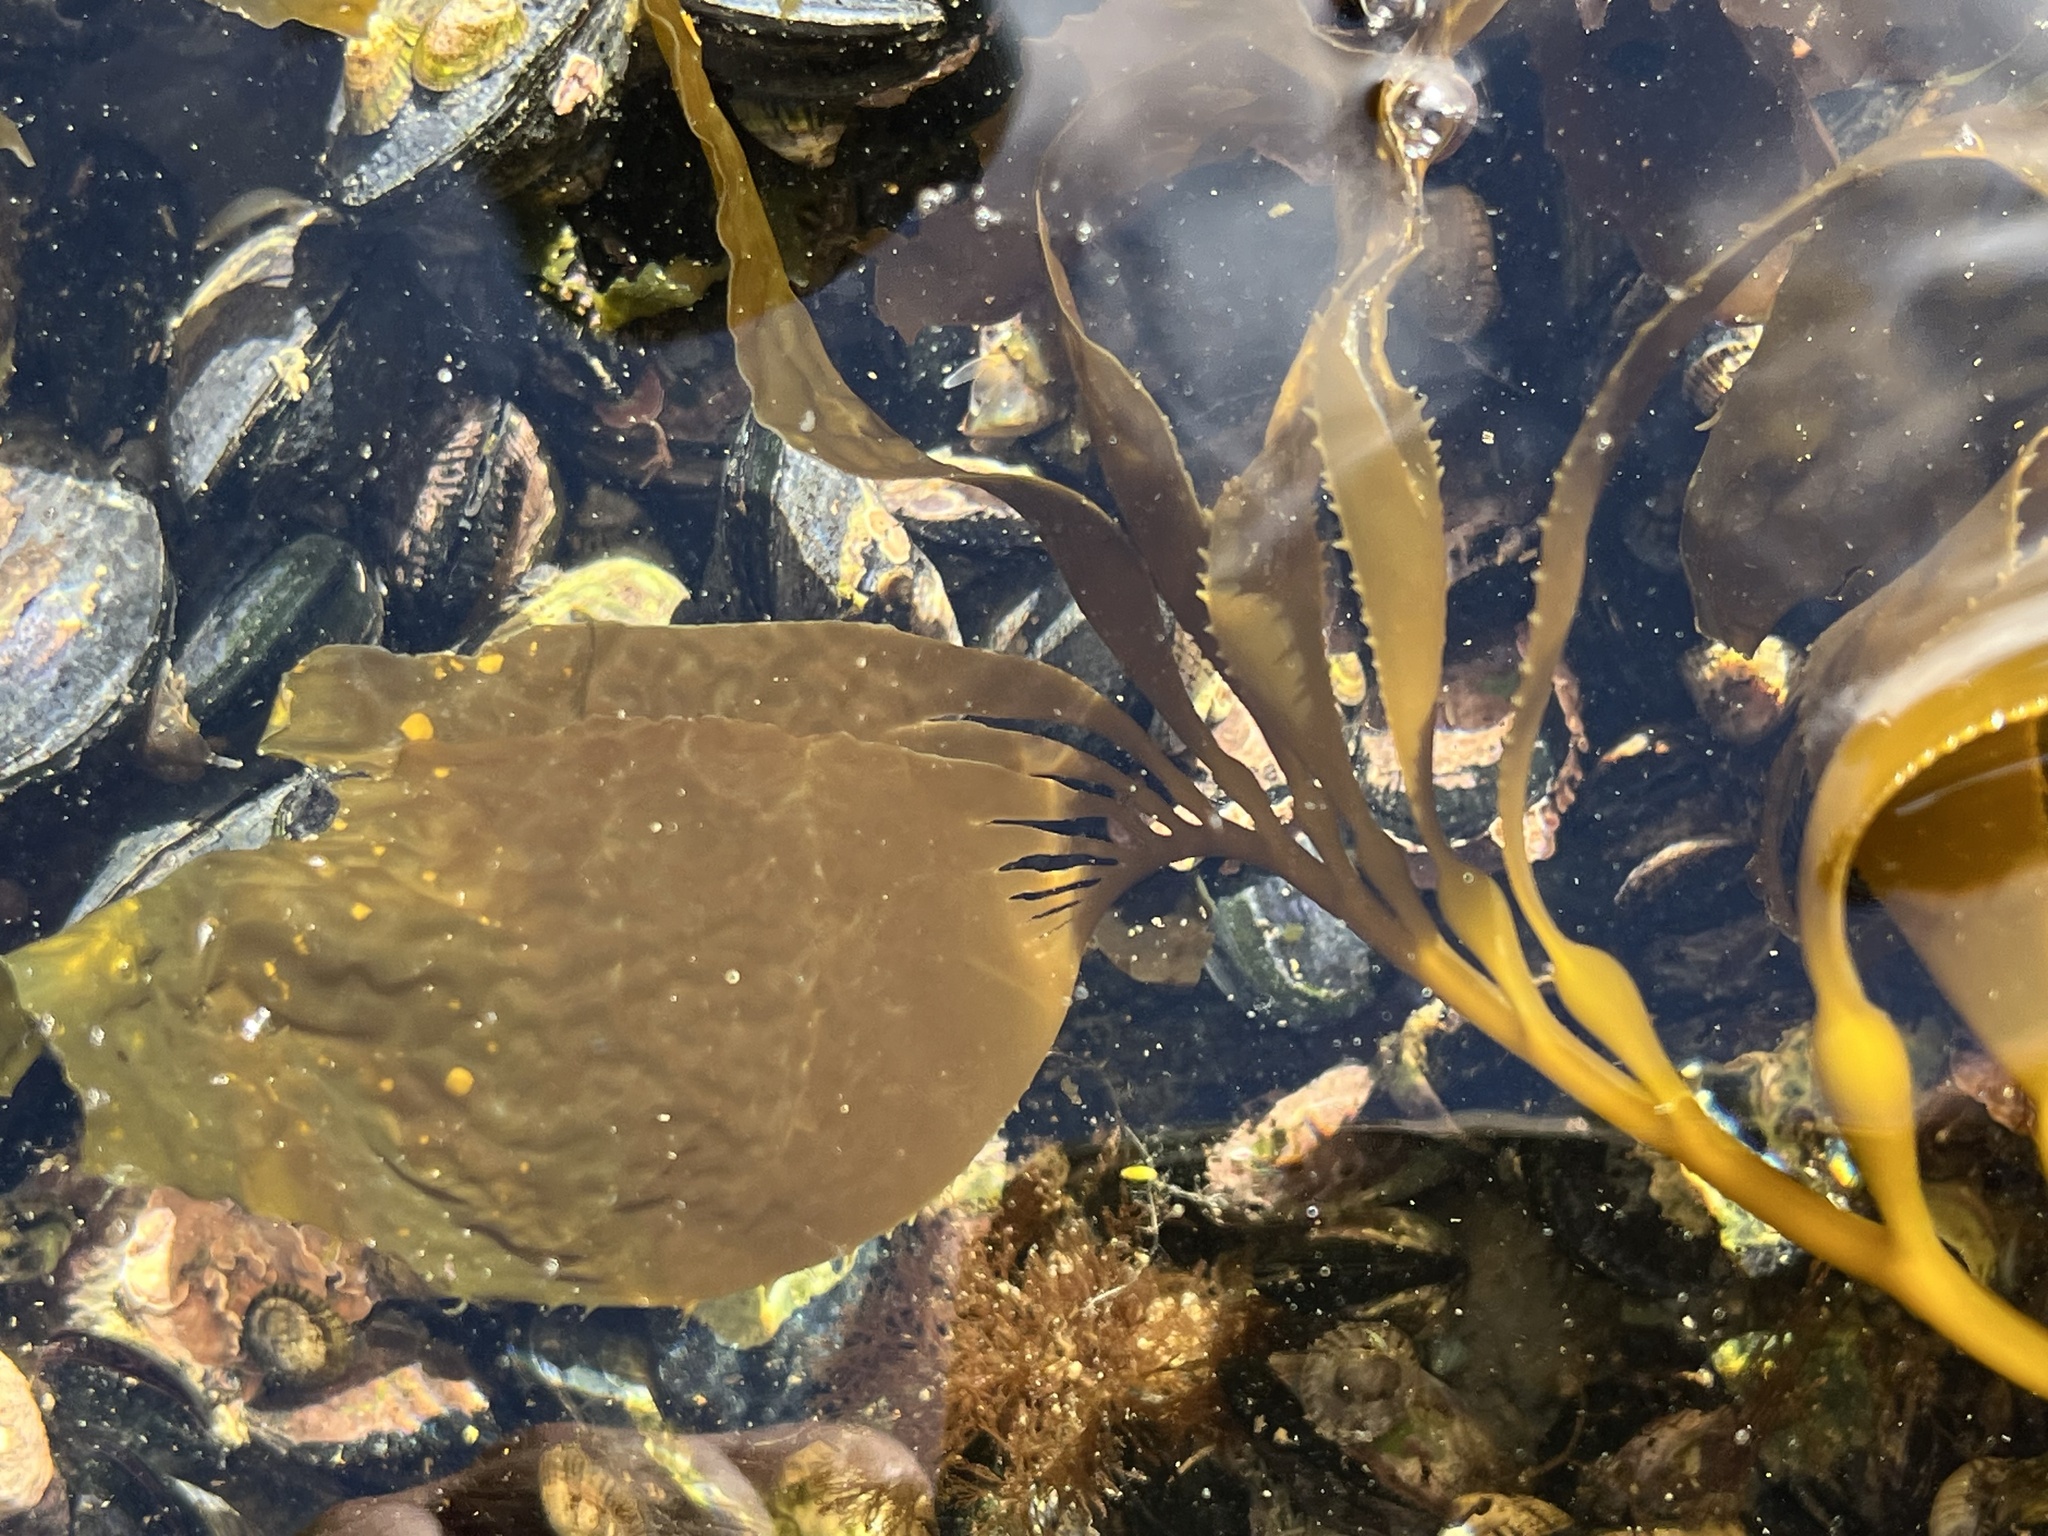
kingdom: Chromista
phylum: Ochrophyta
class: Phaeophyceae
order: Laminariales
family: Laminariaceae
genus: Macrocystis
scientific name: Macrocystis pyrifera
